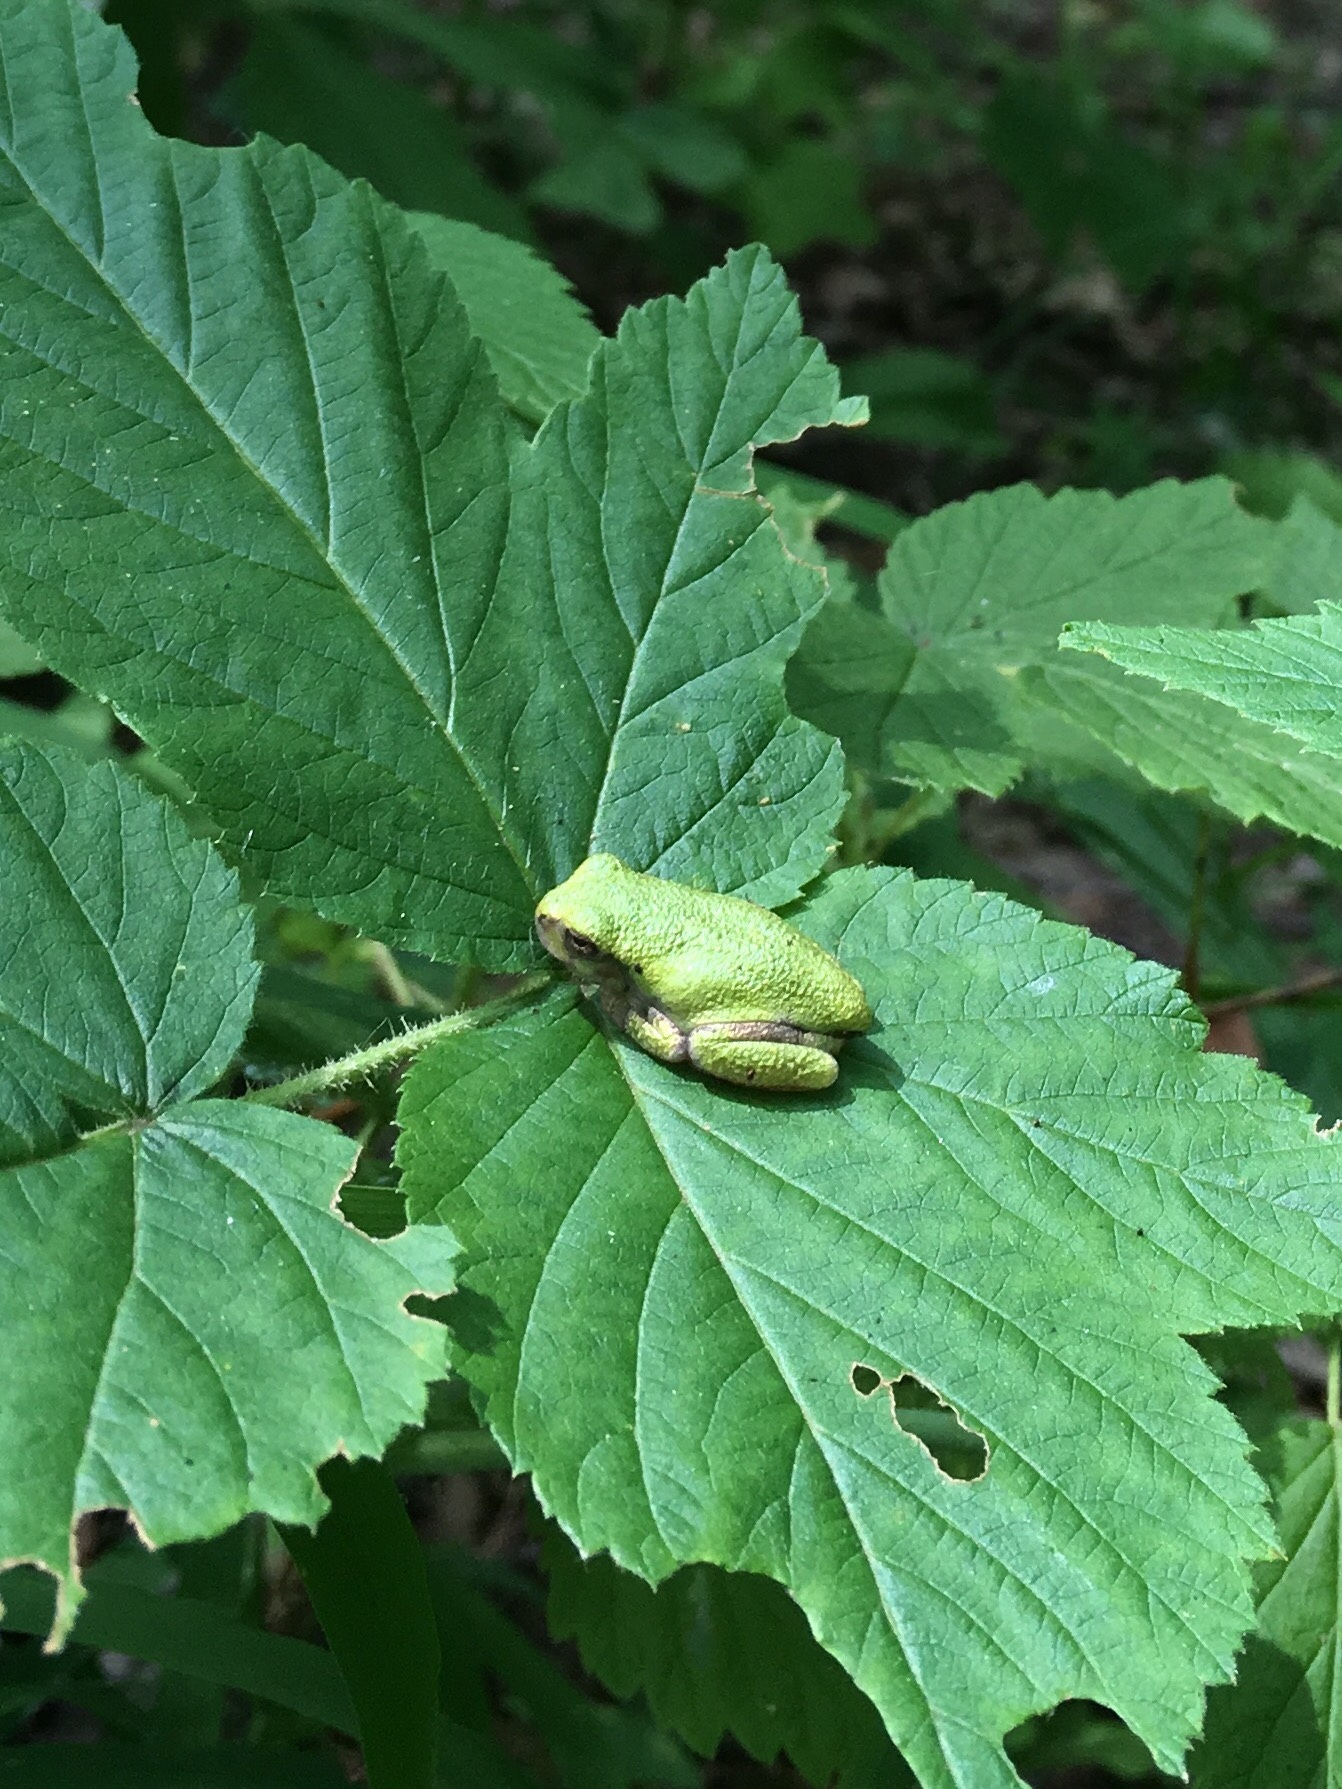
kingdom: Animalia
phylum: Chordata
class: Amphibia
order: Anura
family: Hylidae
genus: Dryophytes
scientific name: Dryophytes versicolor
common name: Gray treefrog
